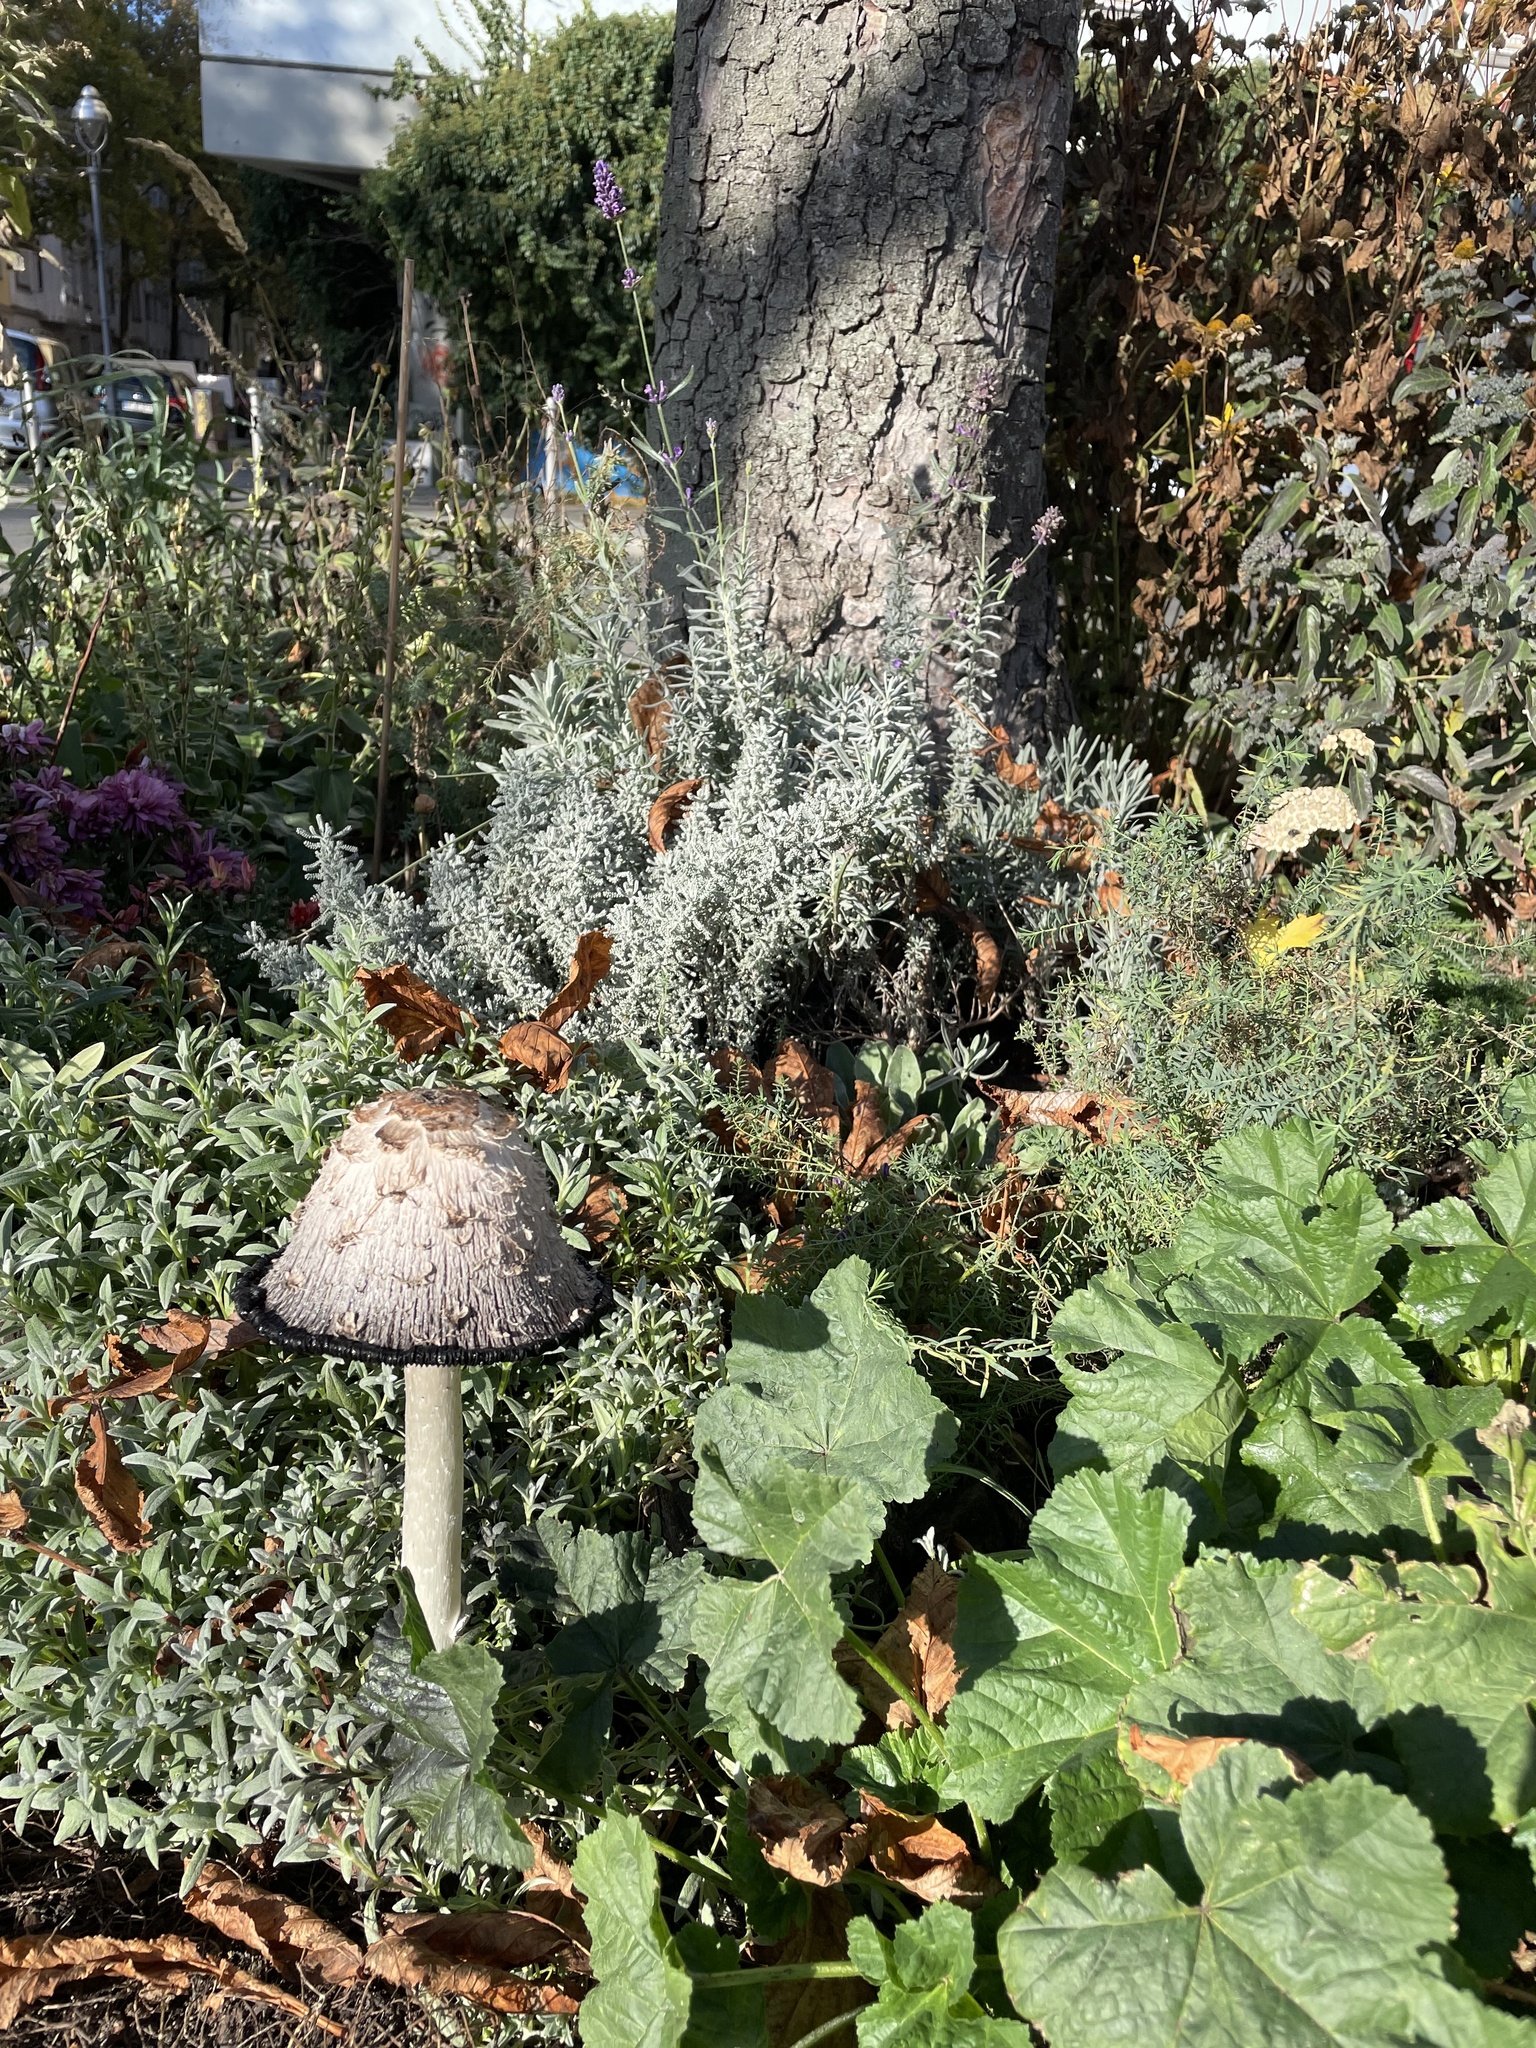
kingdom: Fungi
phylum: Basidiomycota
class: Agaricomycetes
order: Agaricales
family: Agaricaceae
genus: Coprinus
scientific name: Coprinus comatus
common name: Lawyer's wig
